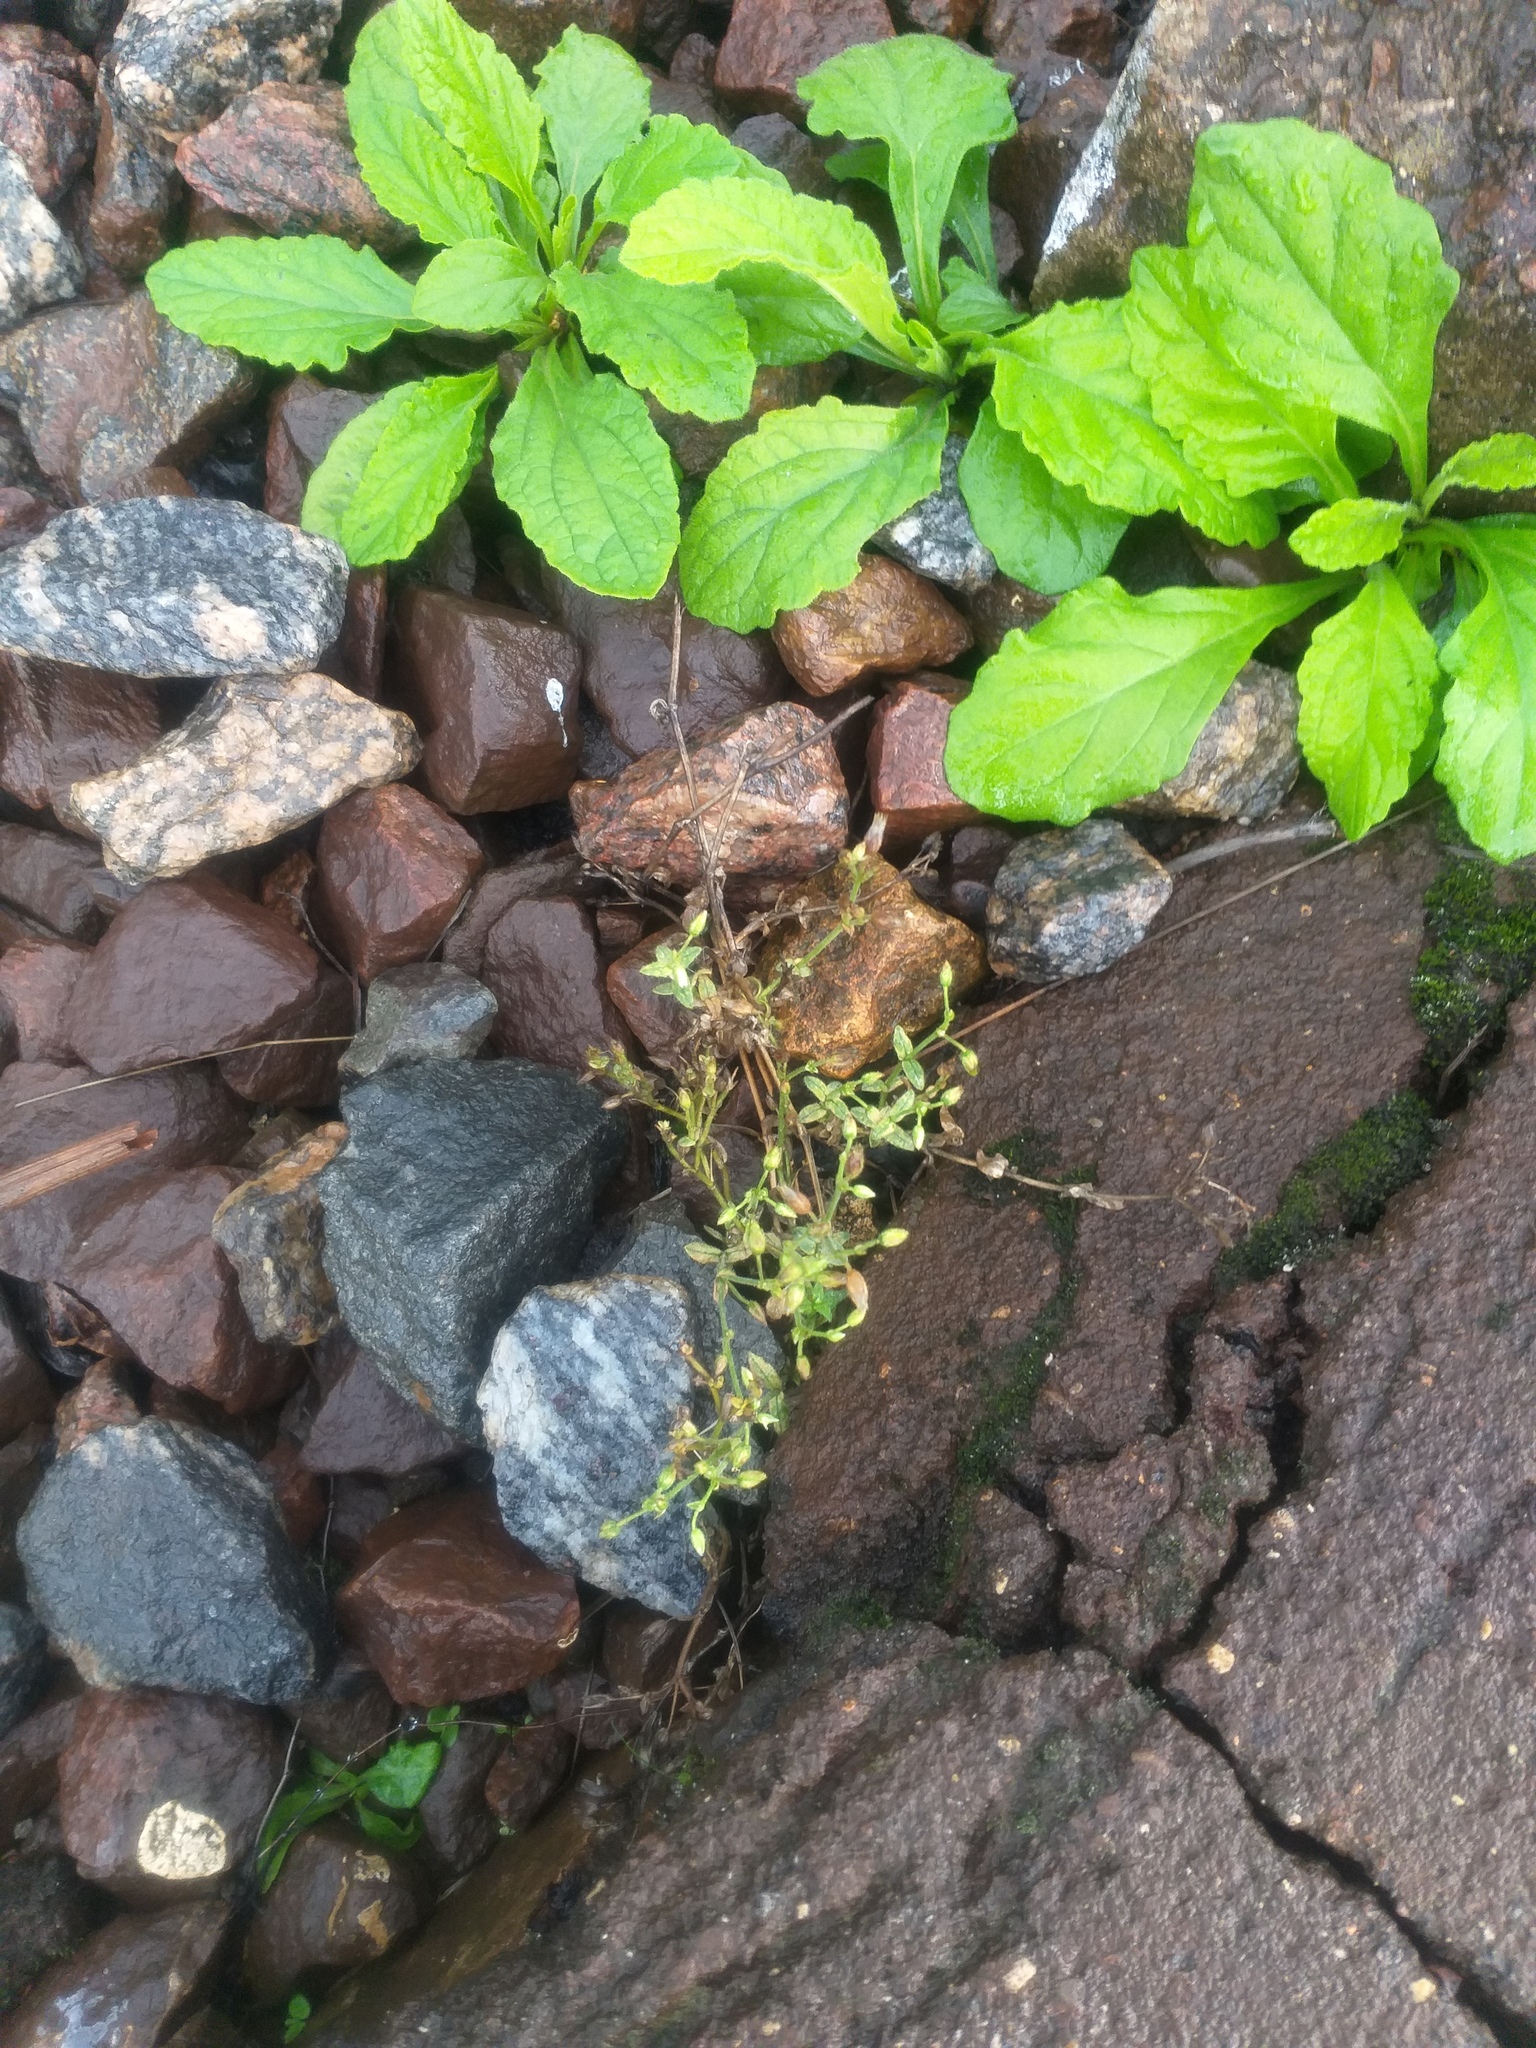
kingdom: Plantae
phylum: Tracheophyta
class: Magnoliopsida
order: Caryophyllales
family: Caryophyllaceae
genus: Cerastium
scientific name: Cerastium holosteoides
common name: Big chickweed
